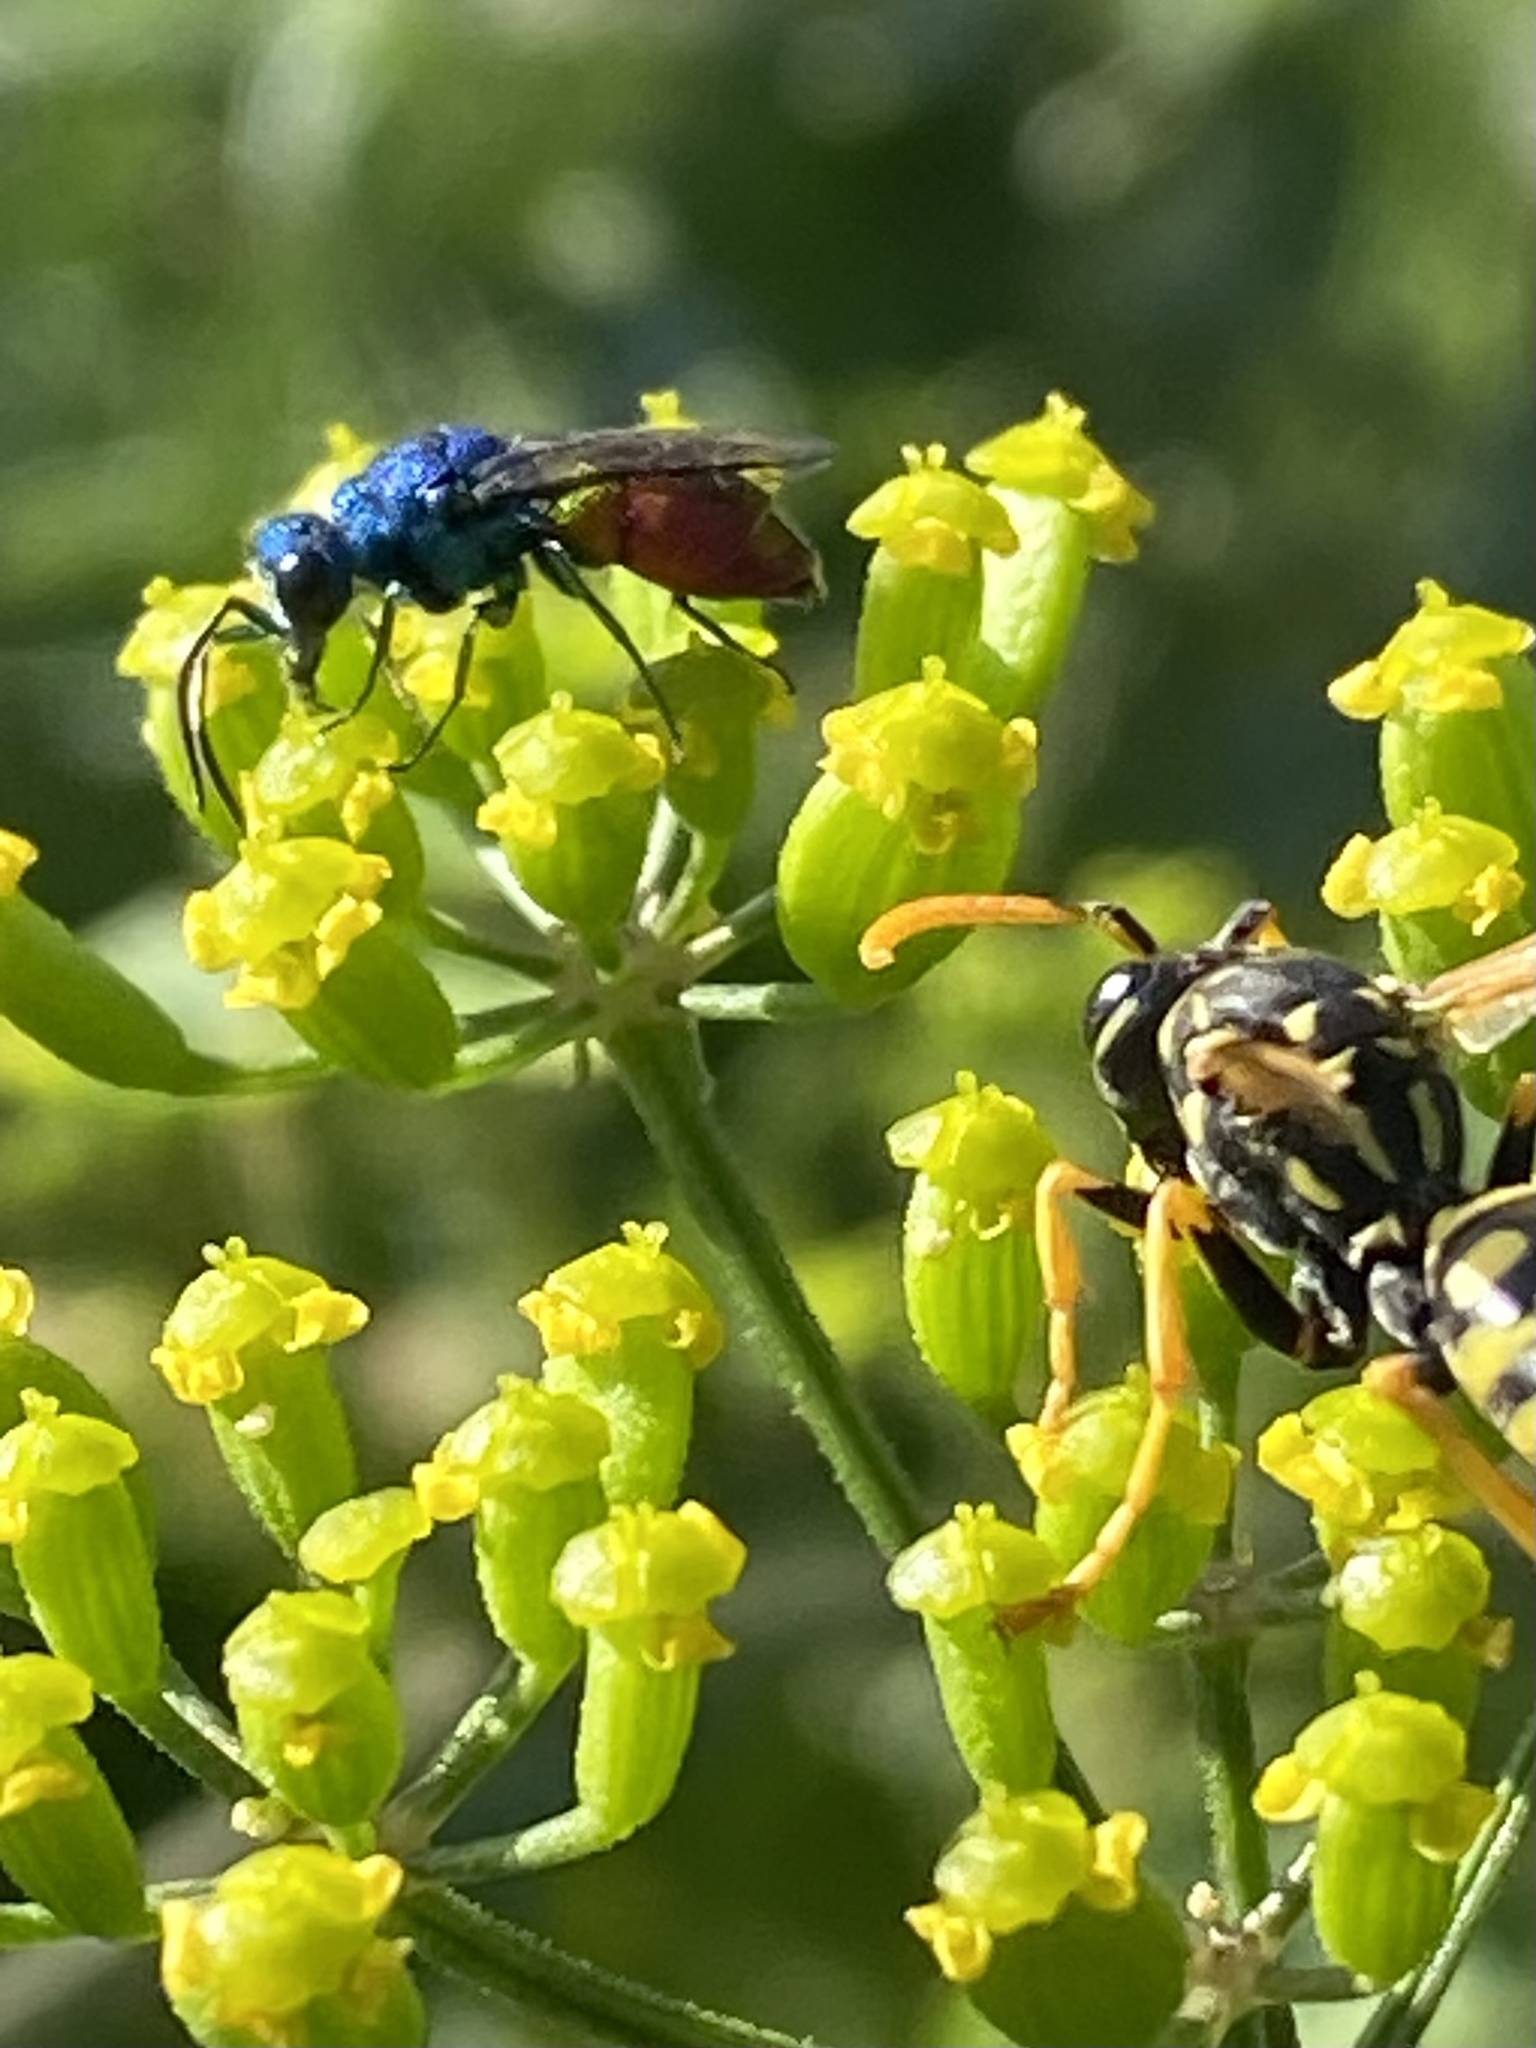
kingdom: Animalia
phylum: Arthropoda
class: Insecta
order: Hymenoptera
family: Chrysididae
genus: Chrysis
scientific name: Chrysis inaequalis
